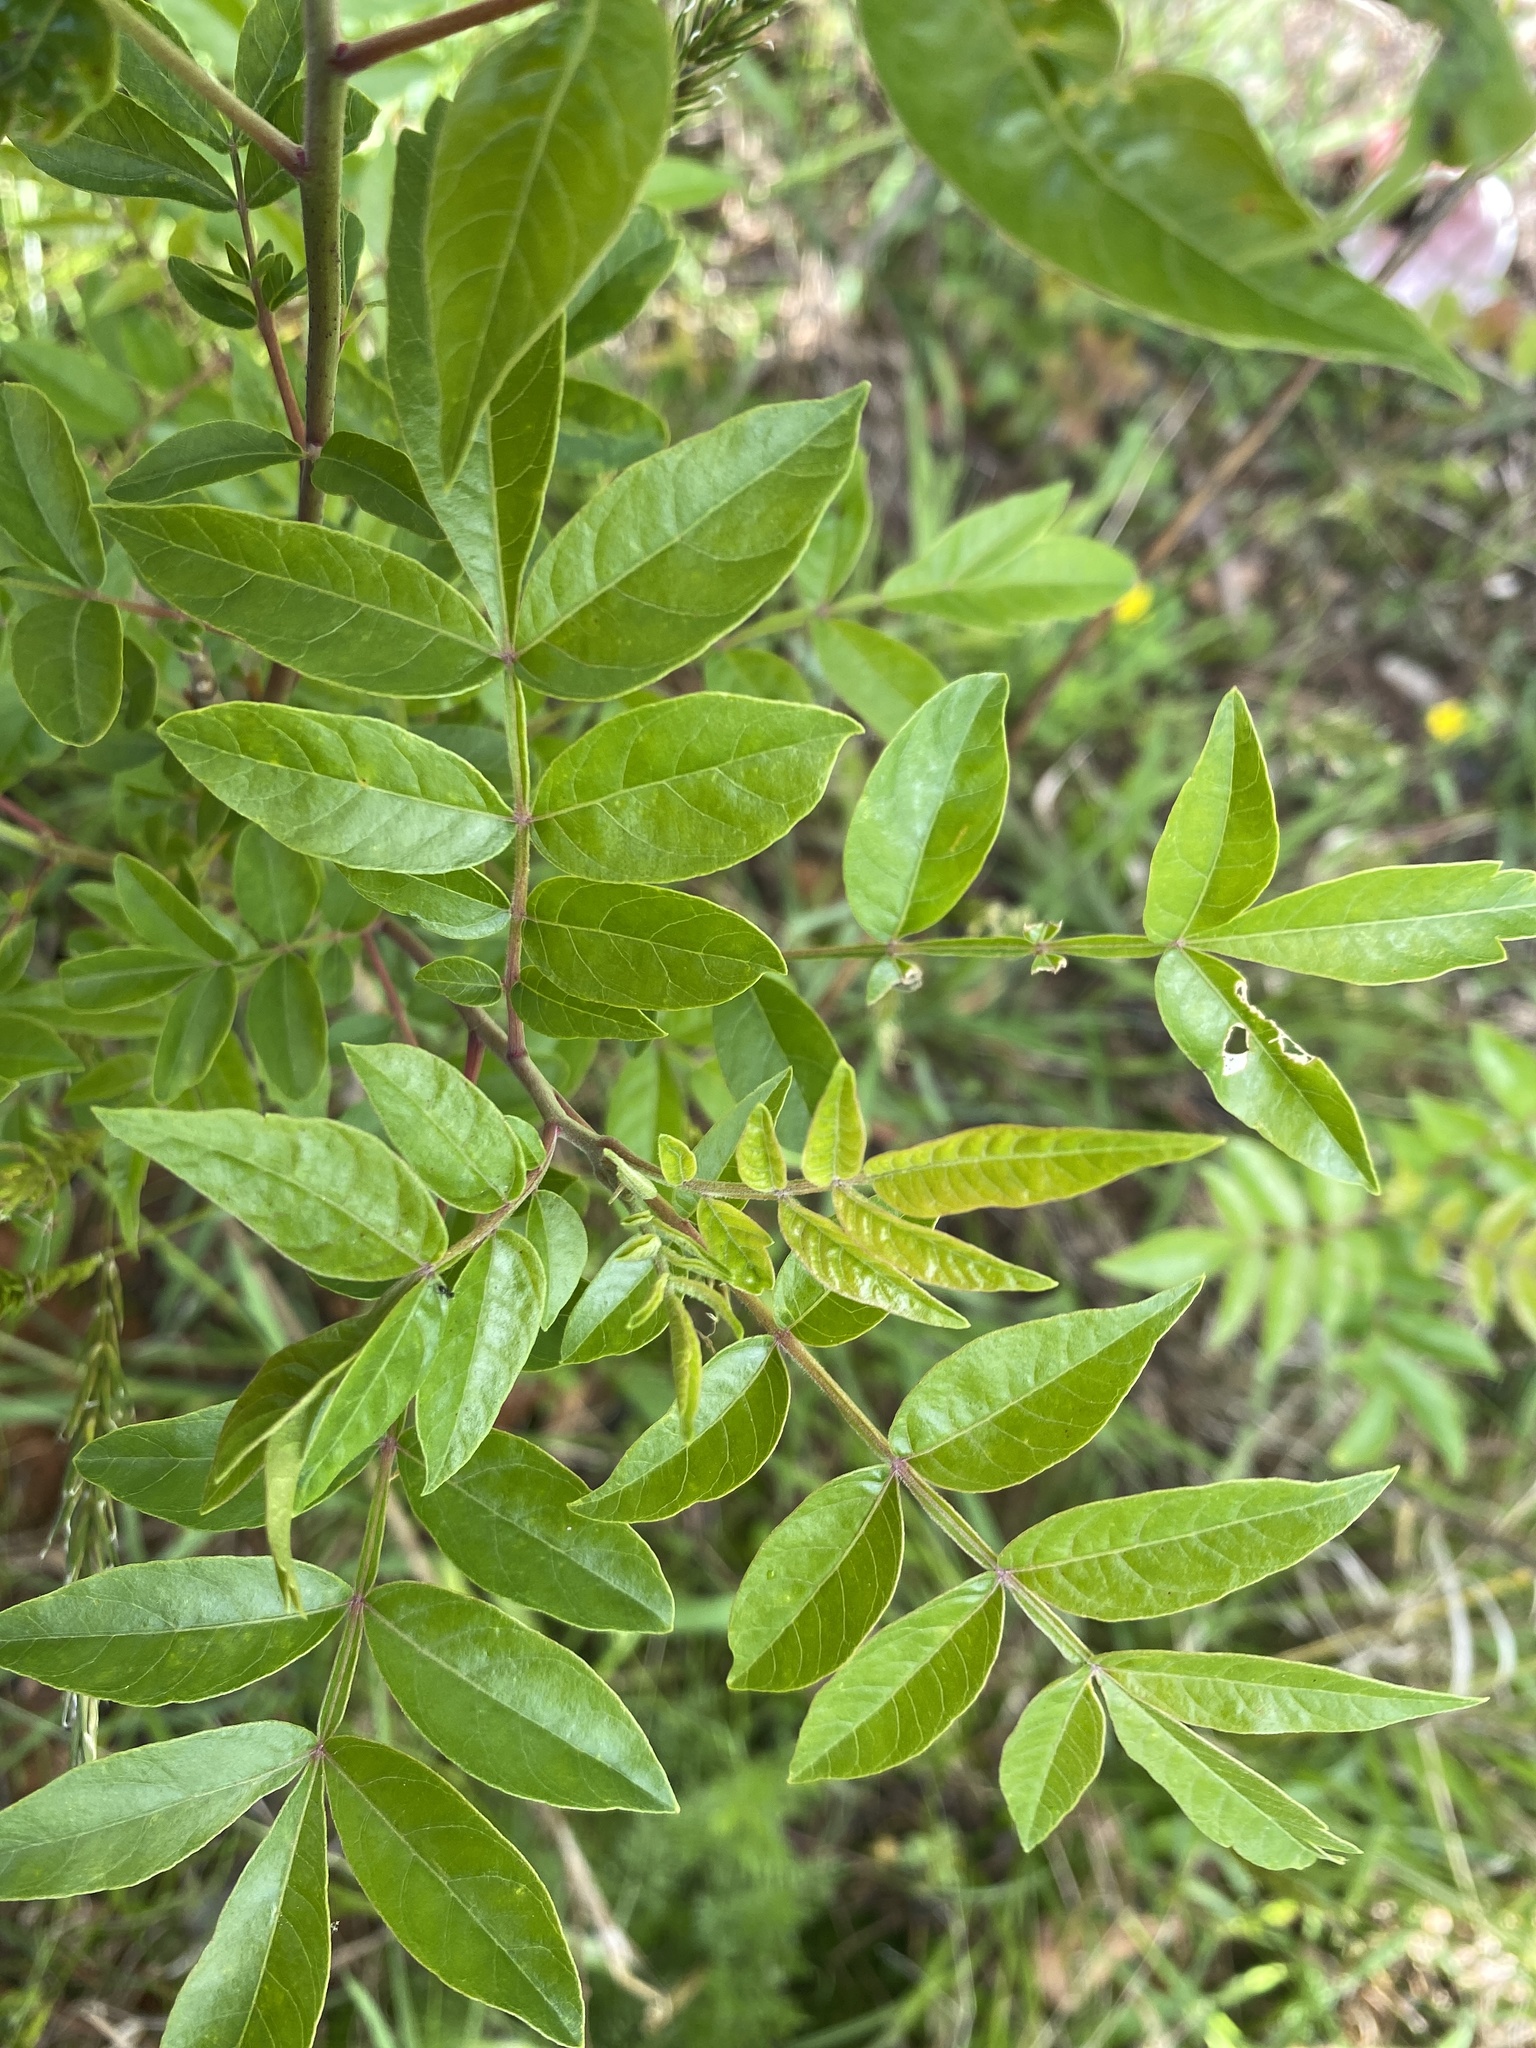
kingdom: Plantae
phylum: Tracheophyta
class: Magnoliopsida
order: Sapindales
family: Anacardiaceae
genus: Rhus
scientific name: Rhus copallina
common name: Shining sumac
